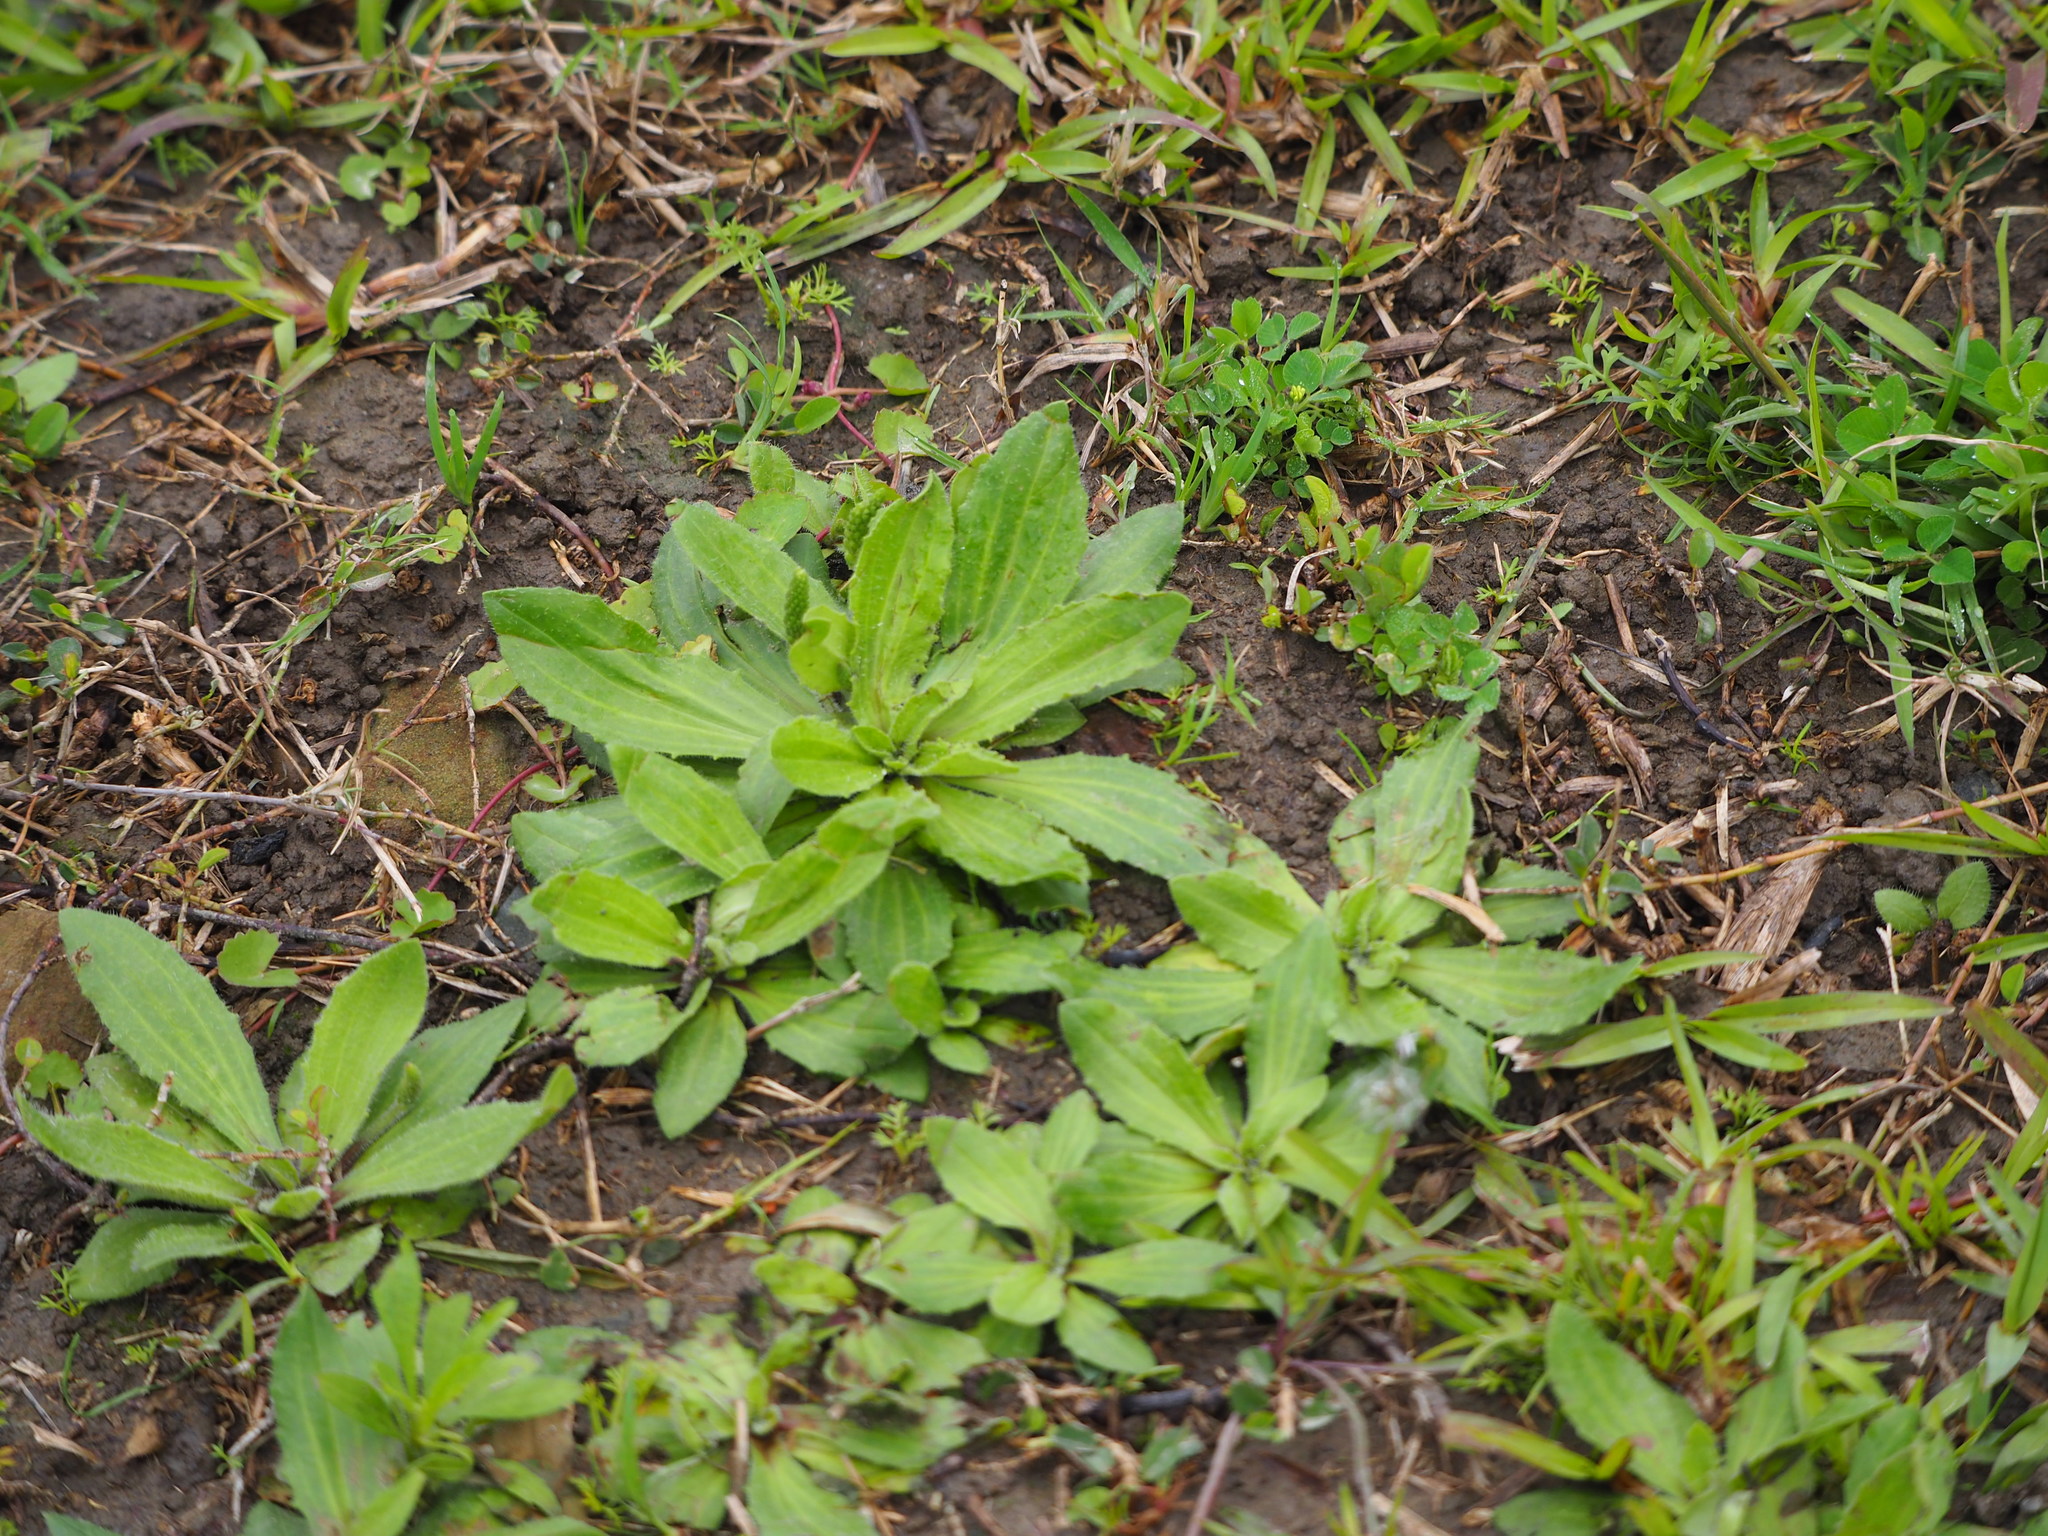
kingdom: Plantae
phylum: Tracheophyta
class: Magnoliopsida
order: Lamiales
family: Plantaginaceae
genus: Plantago
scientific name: Plantago virginica
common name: Hoary plantain
